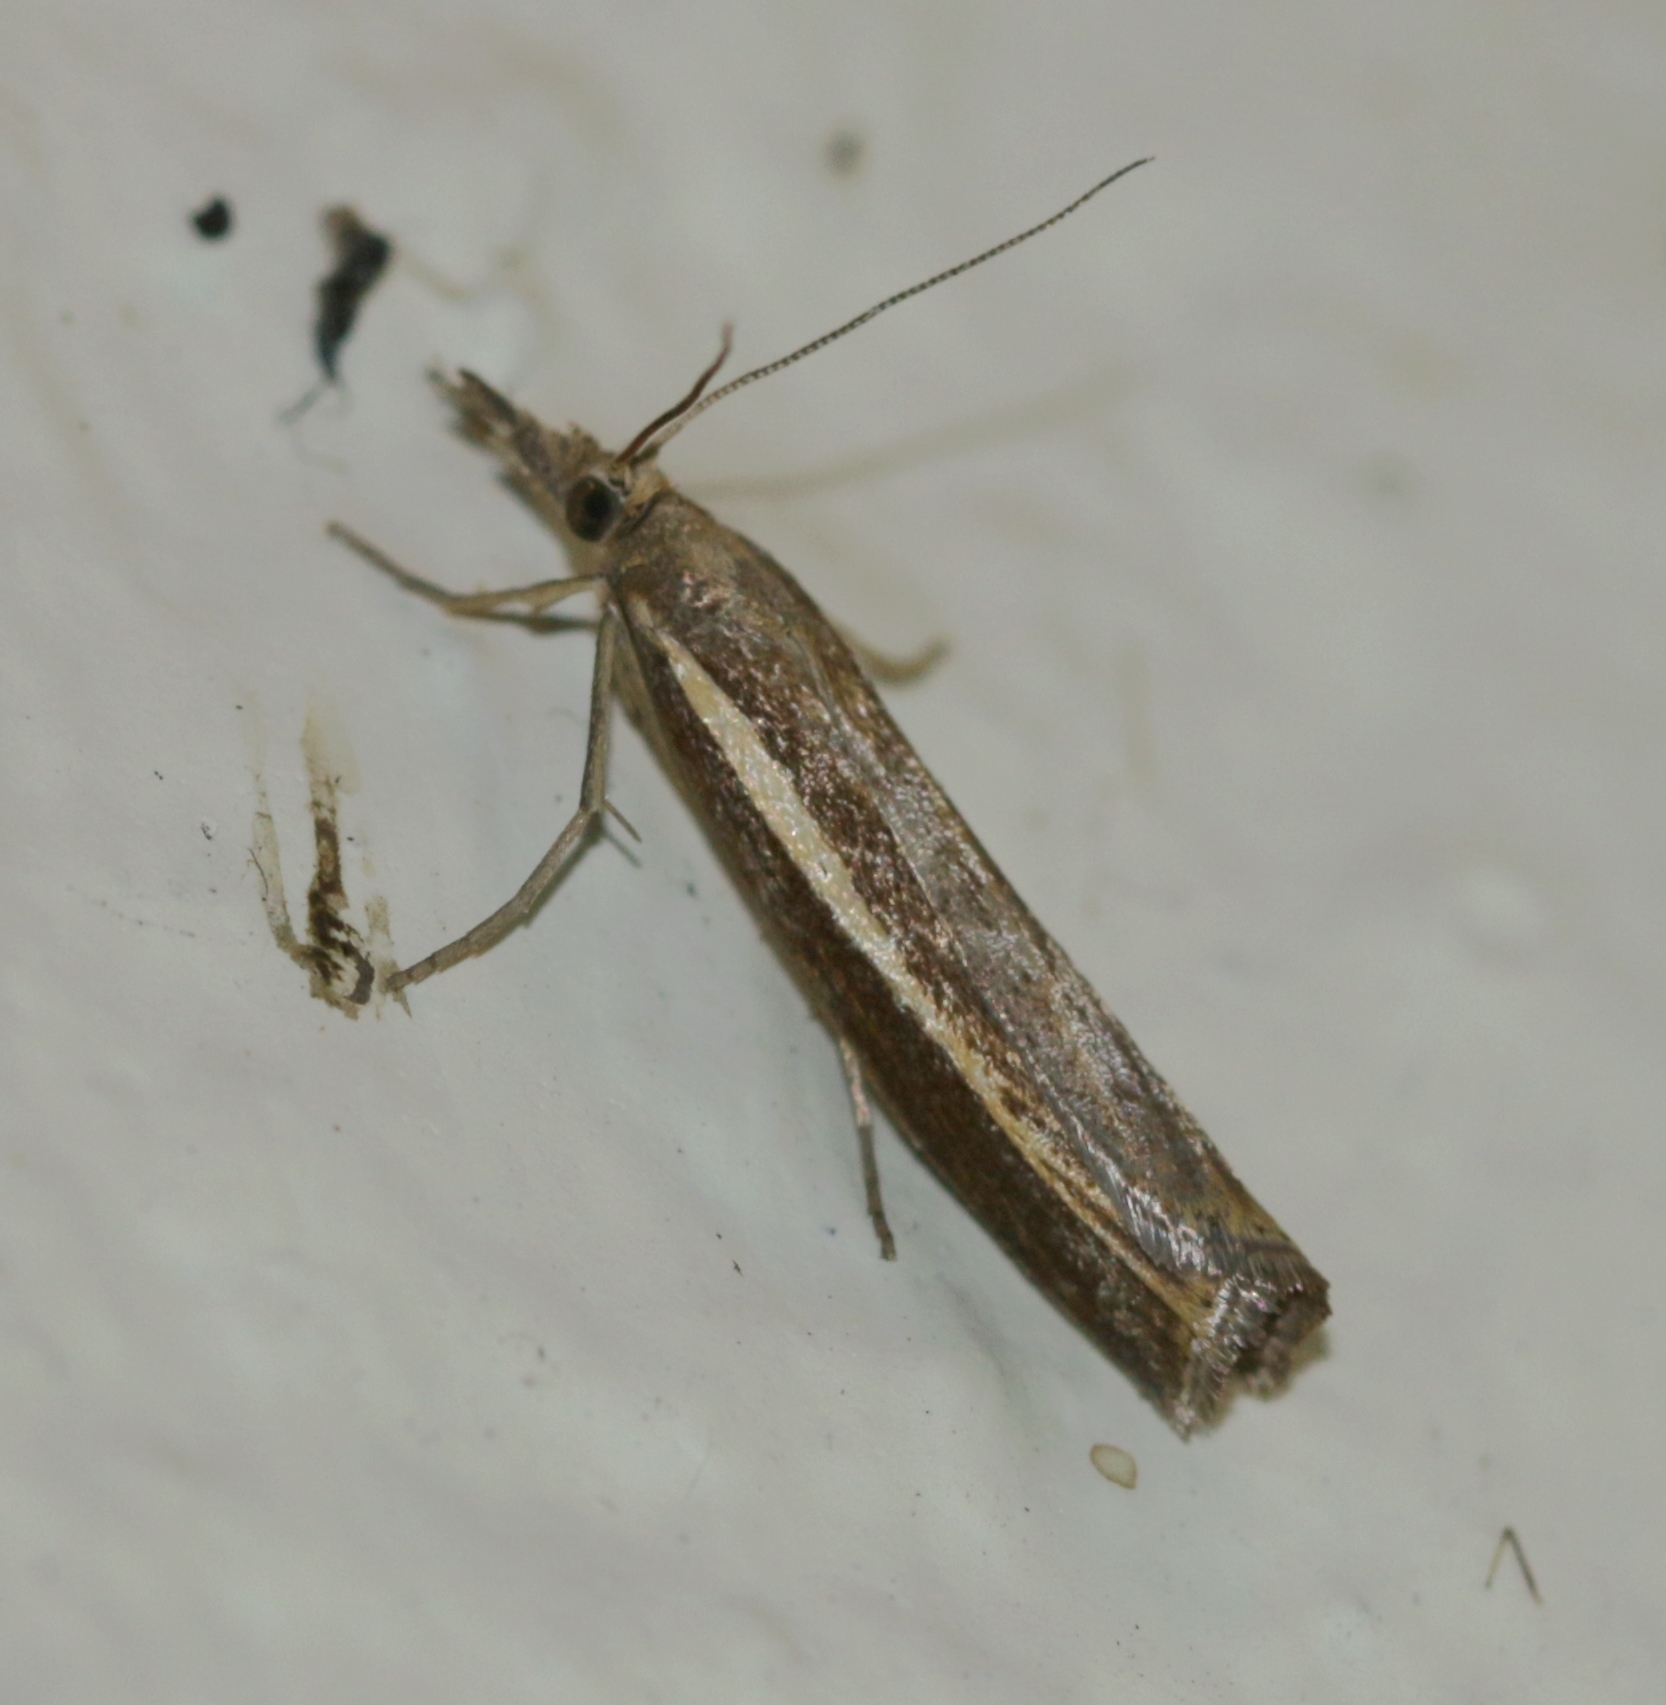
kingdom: Animalia
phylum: Arthropoda
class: Insecta
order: Lepidoptera
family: Crambidae
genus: Agriphila
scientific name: Agriphila tristellus
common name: Common grass-veneer
